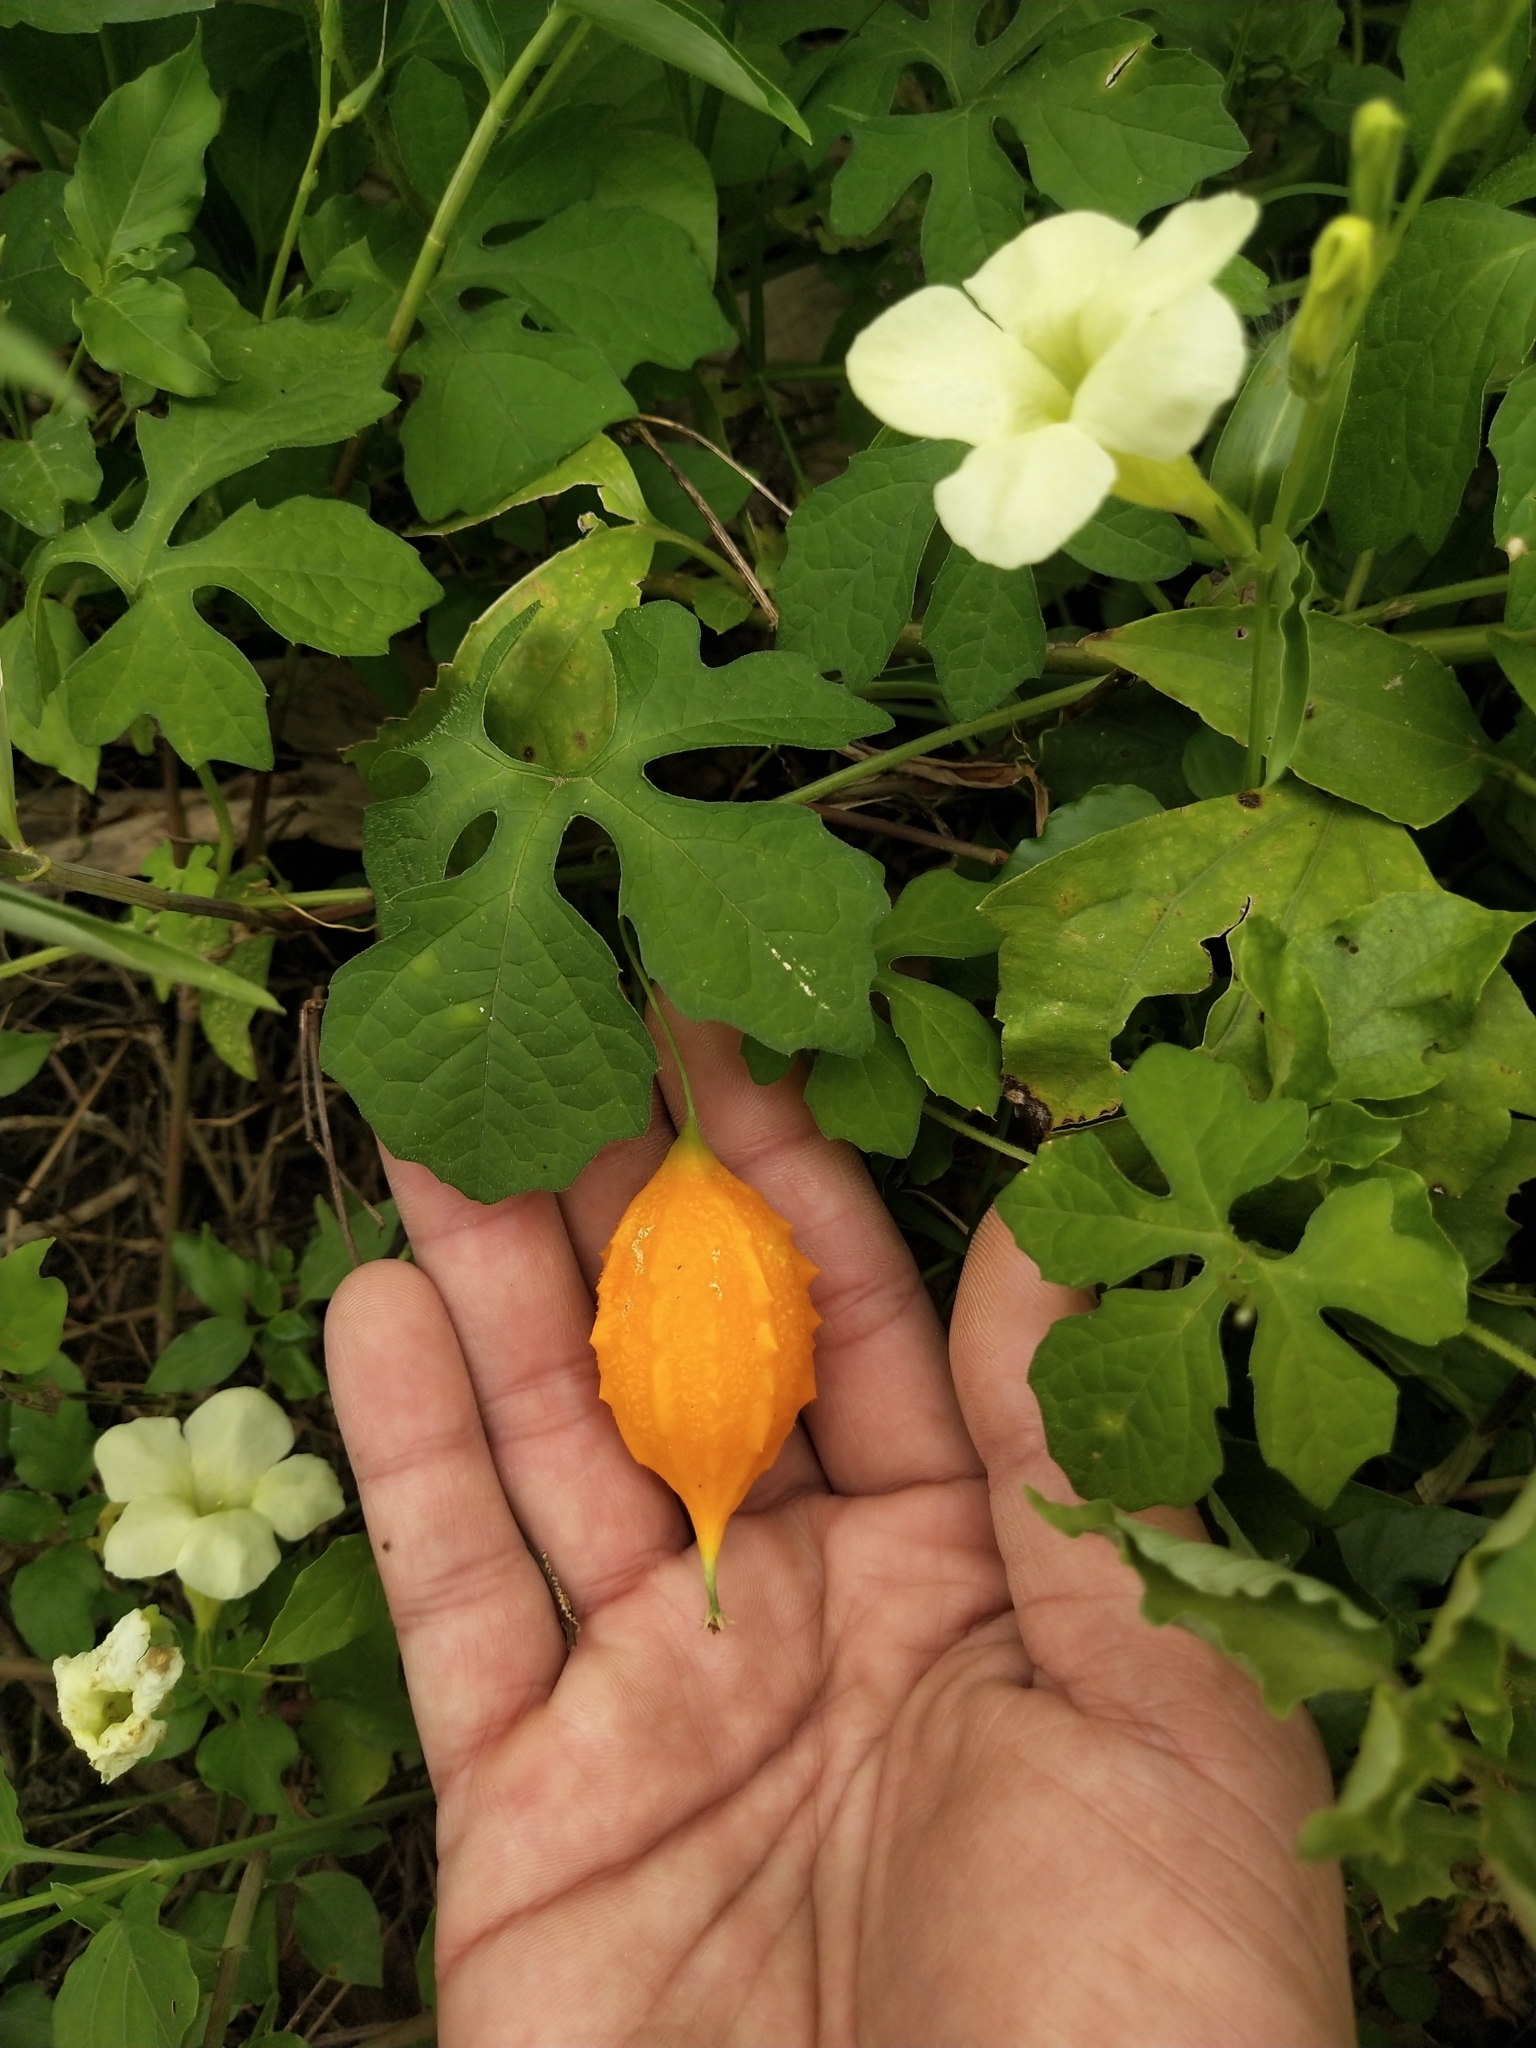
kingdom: Plantae
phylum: Tracheophyta
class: Magnoliopsida
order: Cucurbitales
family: Cucurbitaceae
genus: Momordica
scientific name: Momordica charantia
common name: Balsampear
